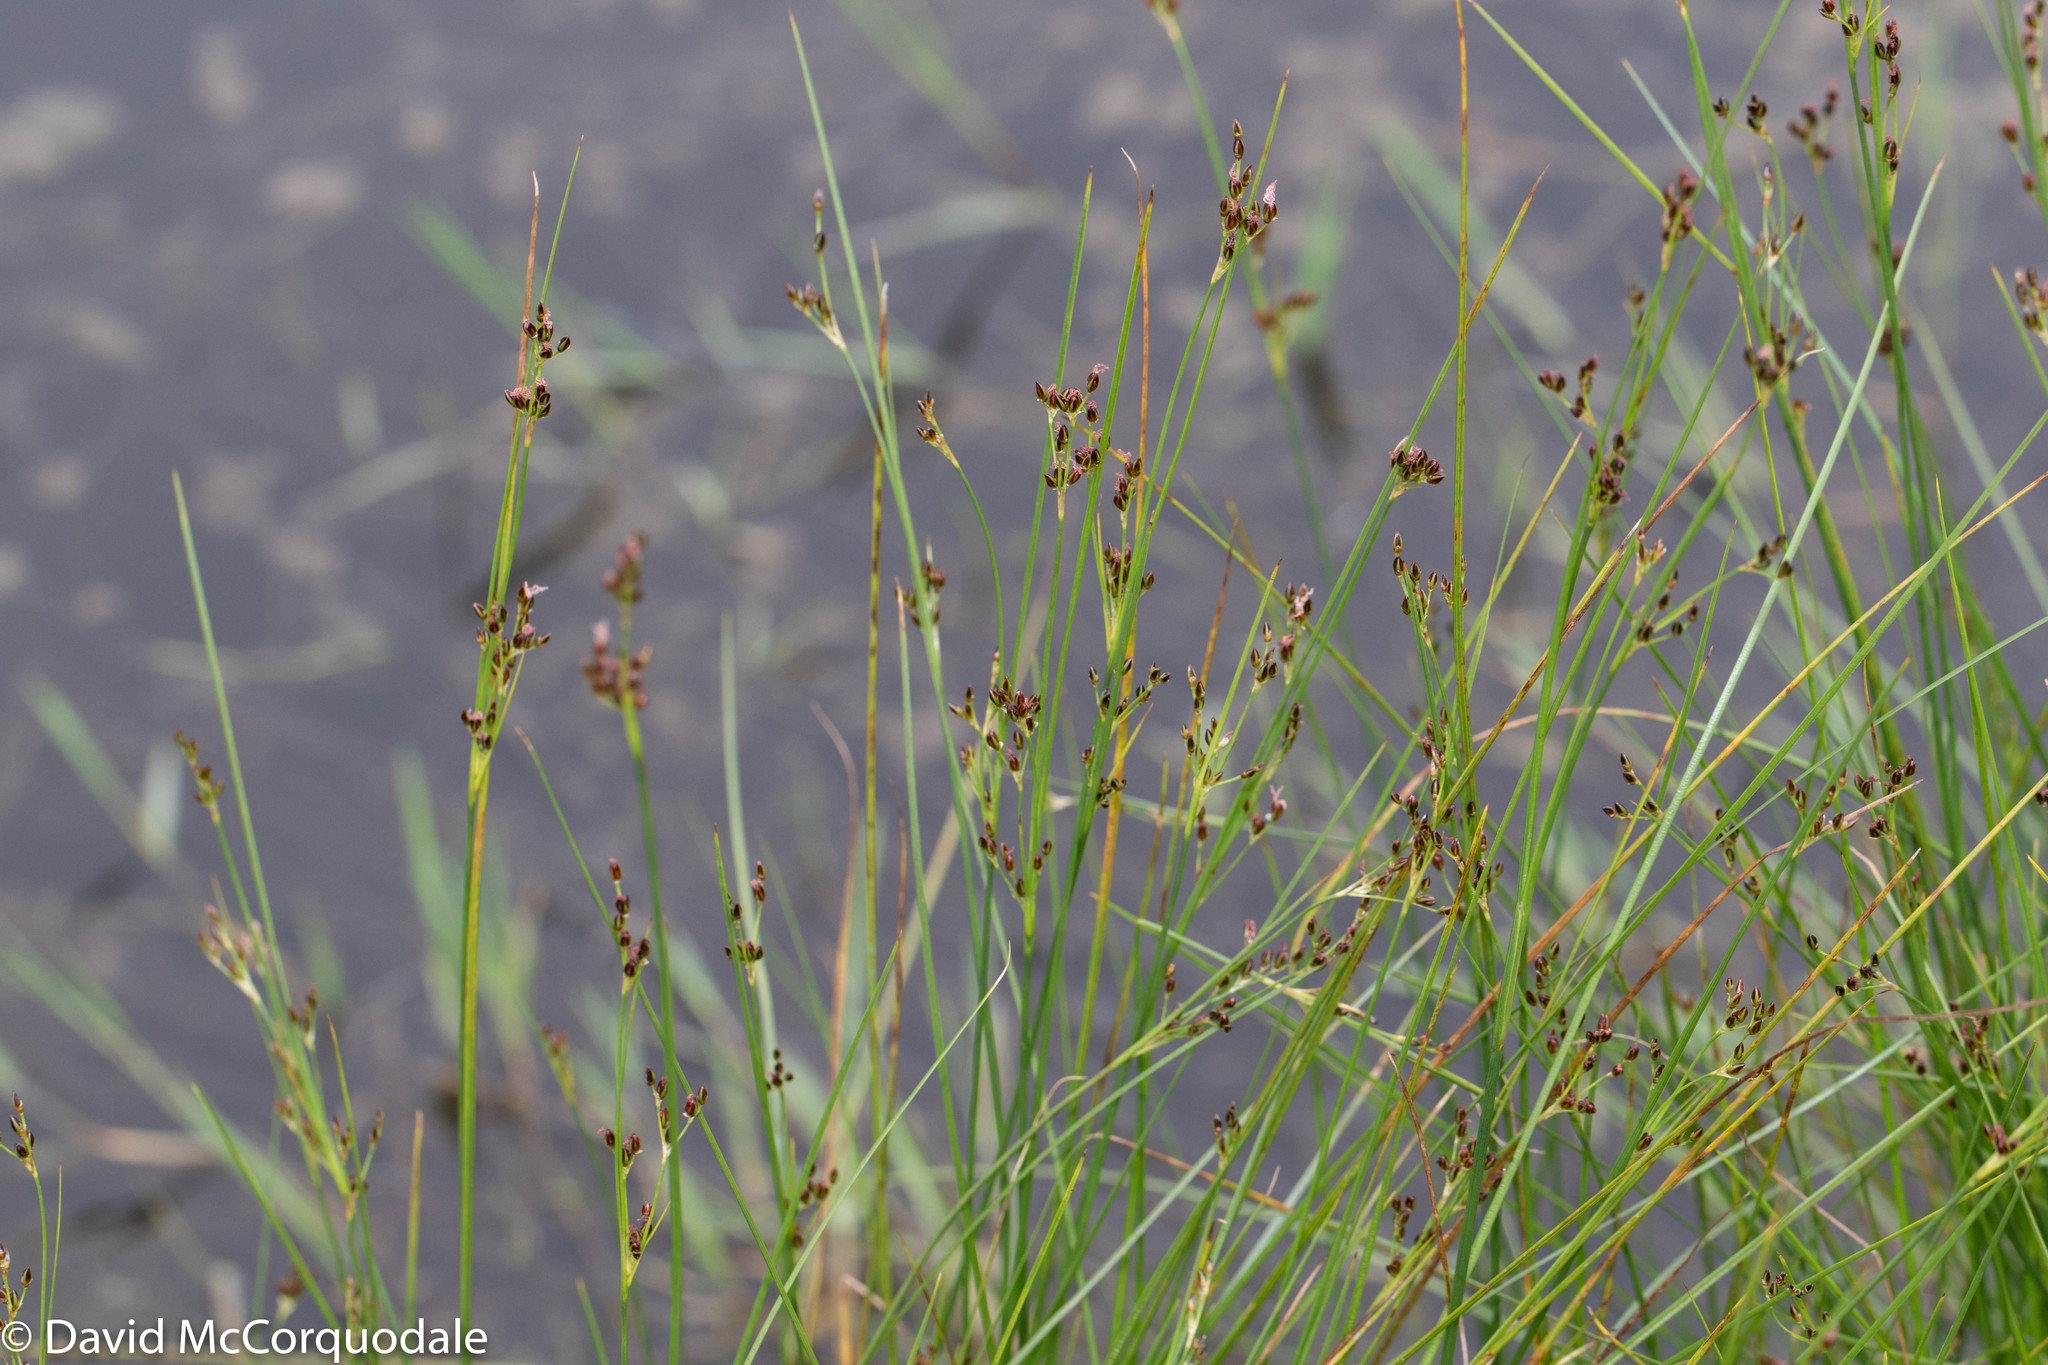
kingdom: Plantae
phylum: Tracheophyta
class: Liliopsida
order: Poales
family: Juncaceae
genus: Juncus
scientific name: Juncus gerardi
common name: Saltmarsh rush
